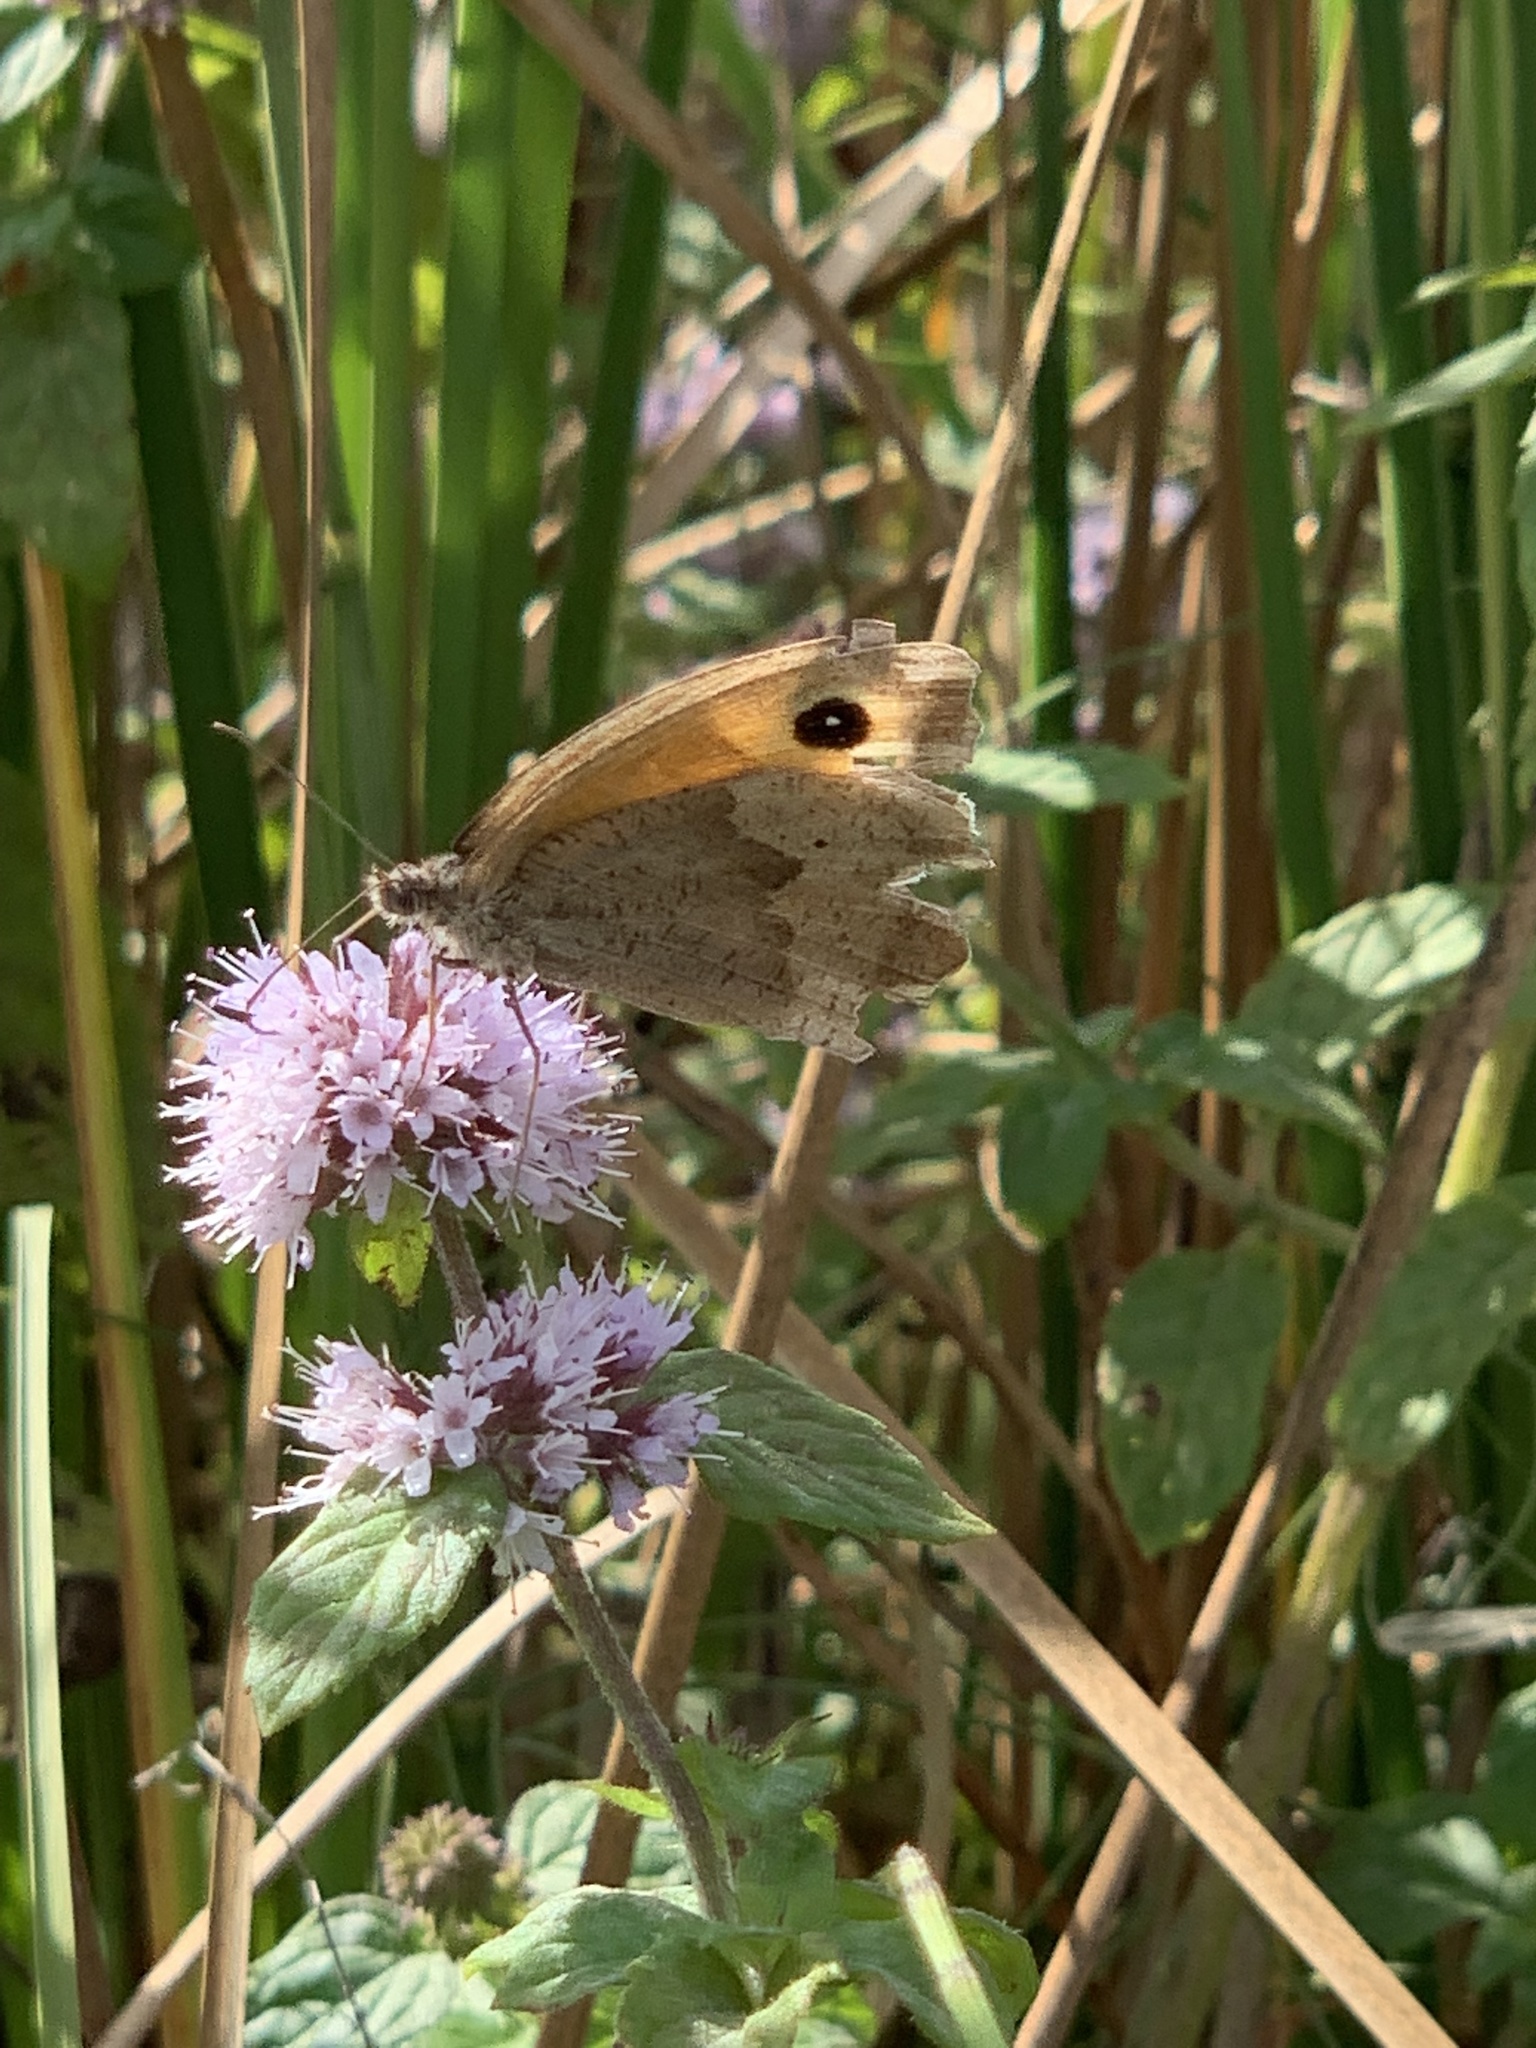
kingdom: Animalia
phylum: Arthropoda
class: Insecta
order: Lepidoptera
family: Nymphalidae
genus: Maniola
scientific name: Maniola jurtina
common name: Meadow brown
